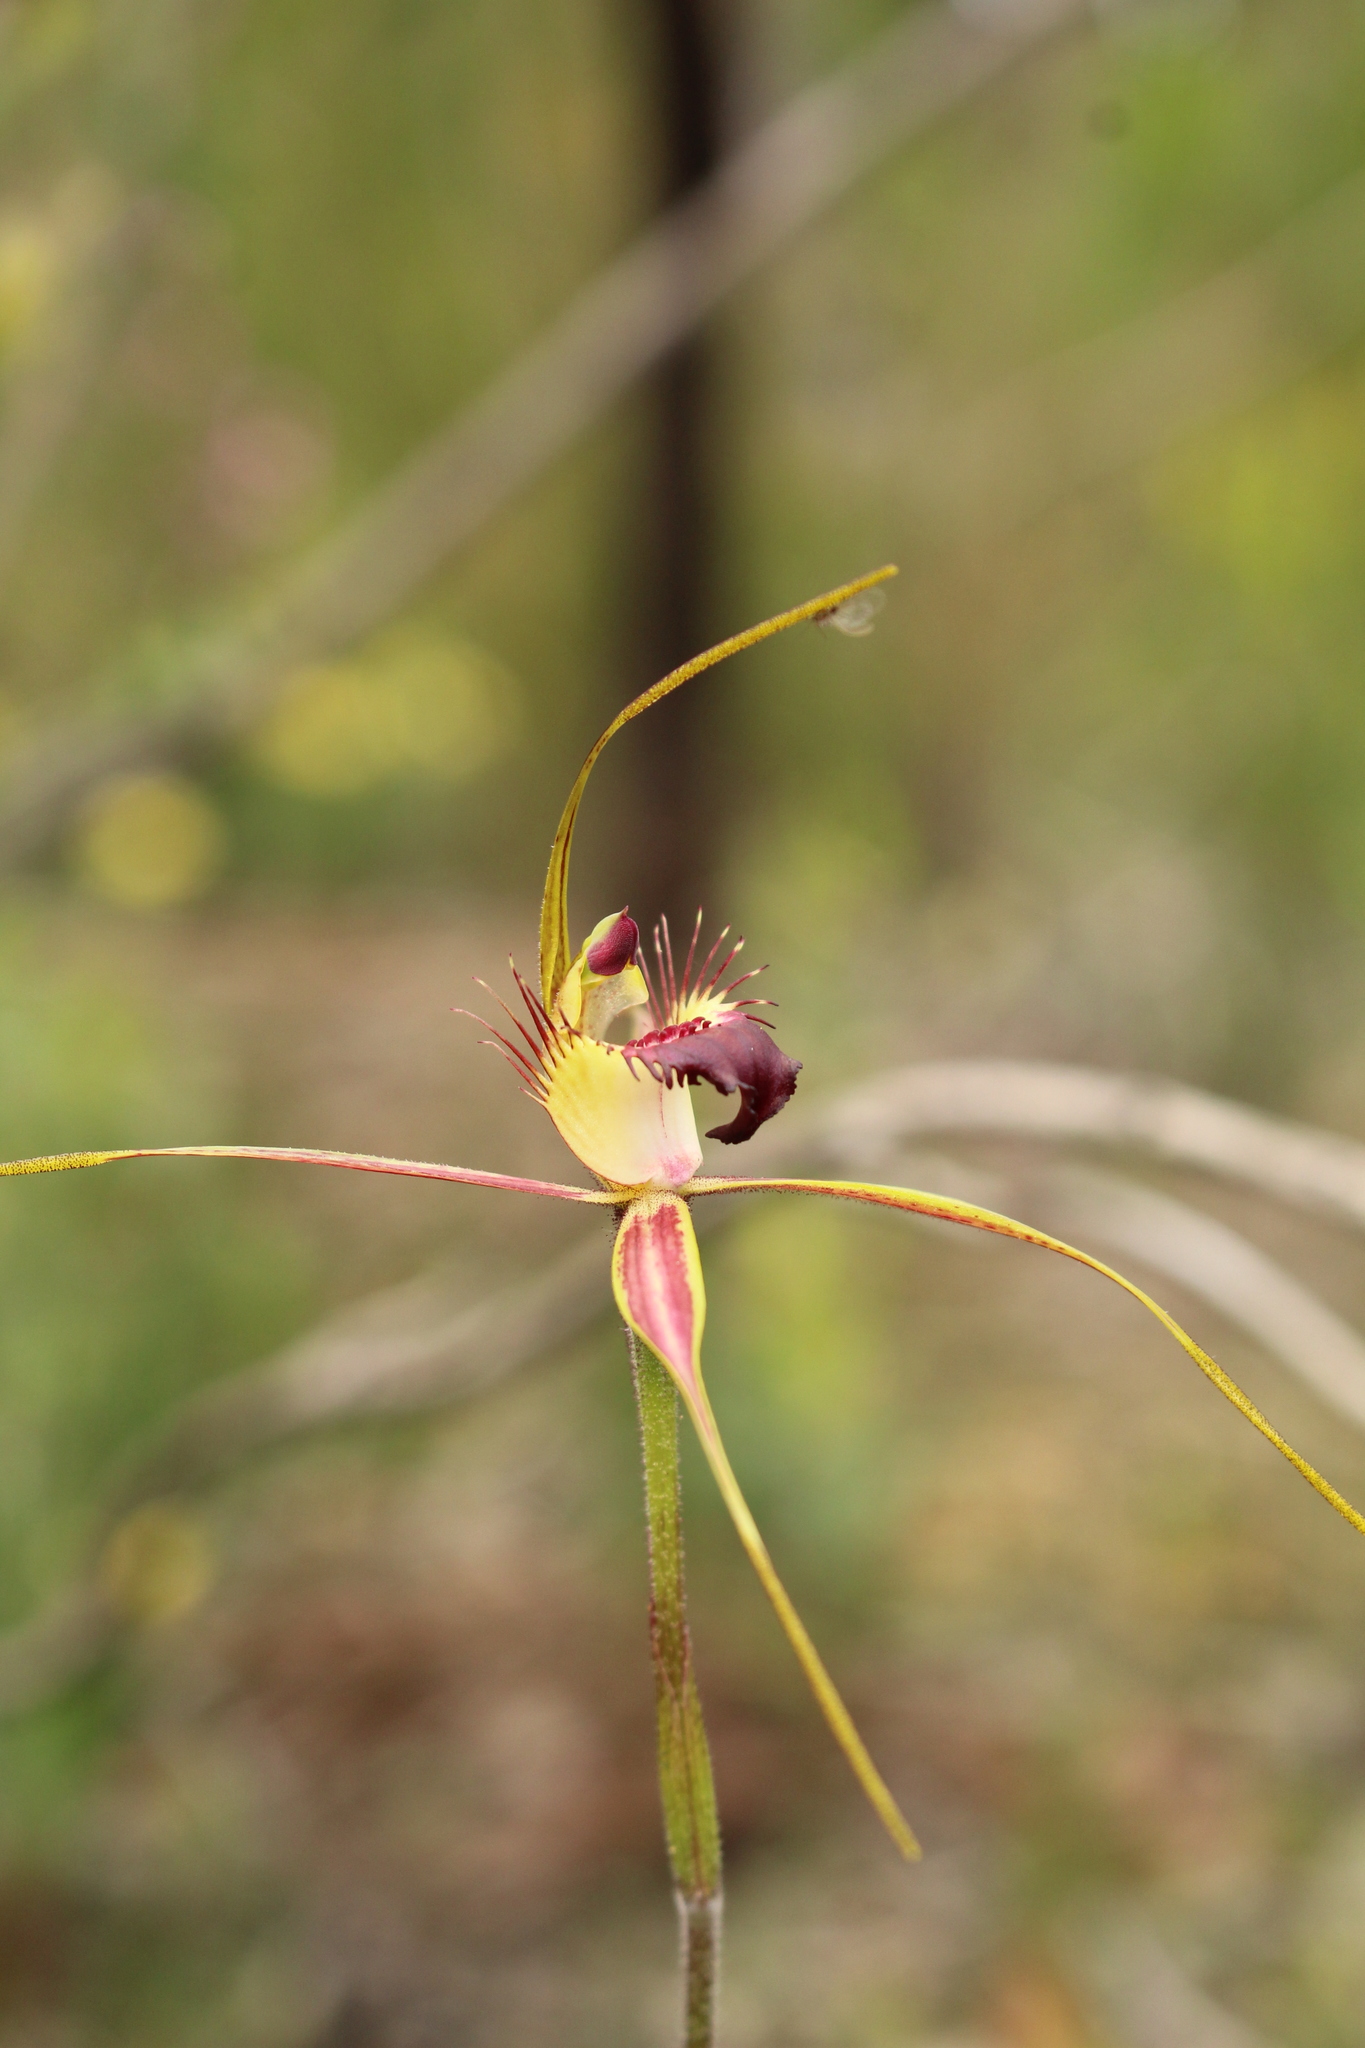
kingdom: Plantae
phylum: Tracheophyta
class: Liliopsida
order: Asparagales
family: Orchidaceae
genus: Caladenia
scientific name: Caladenia brownii
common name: Kari spider orchid
